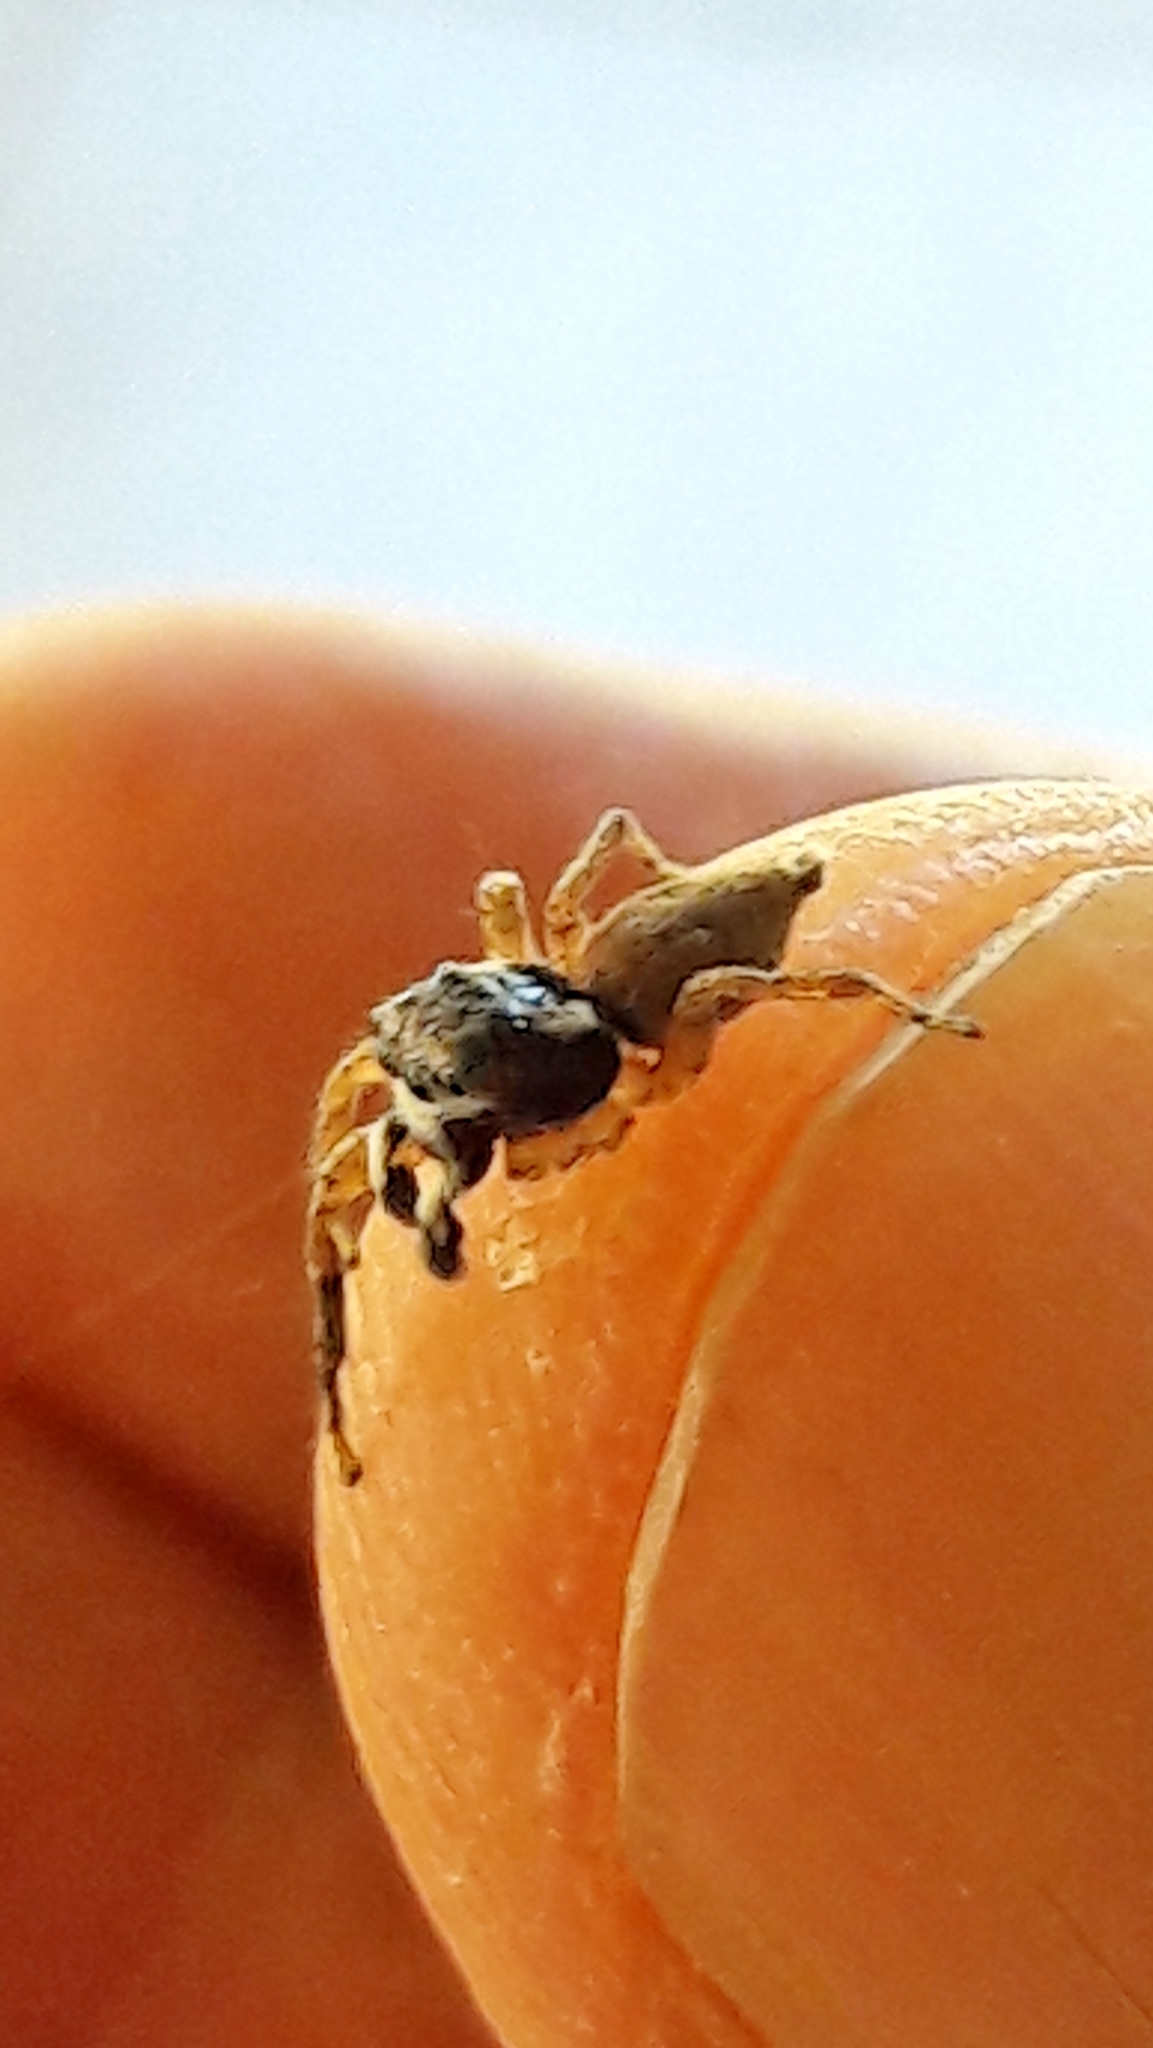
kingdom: Animalia
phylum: Arthropoda
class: Arachnida
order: Araneae
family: Salticidae
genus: Sumampattus
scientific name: Sumampattus quinqueradiatus
